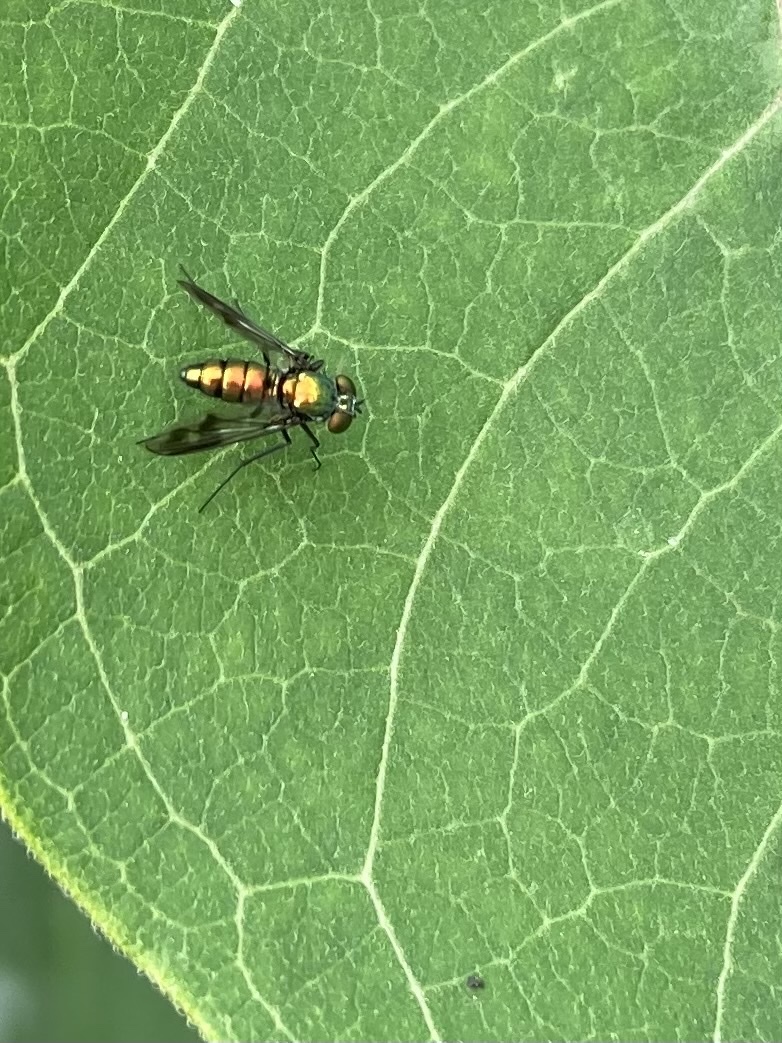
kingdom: Animalia
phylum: Arthropoda
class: Insecta
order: Diptera
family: Dolichopodidae
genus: Condylostylus
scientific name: Condylostylus patibulatus
